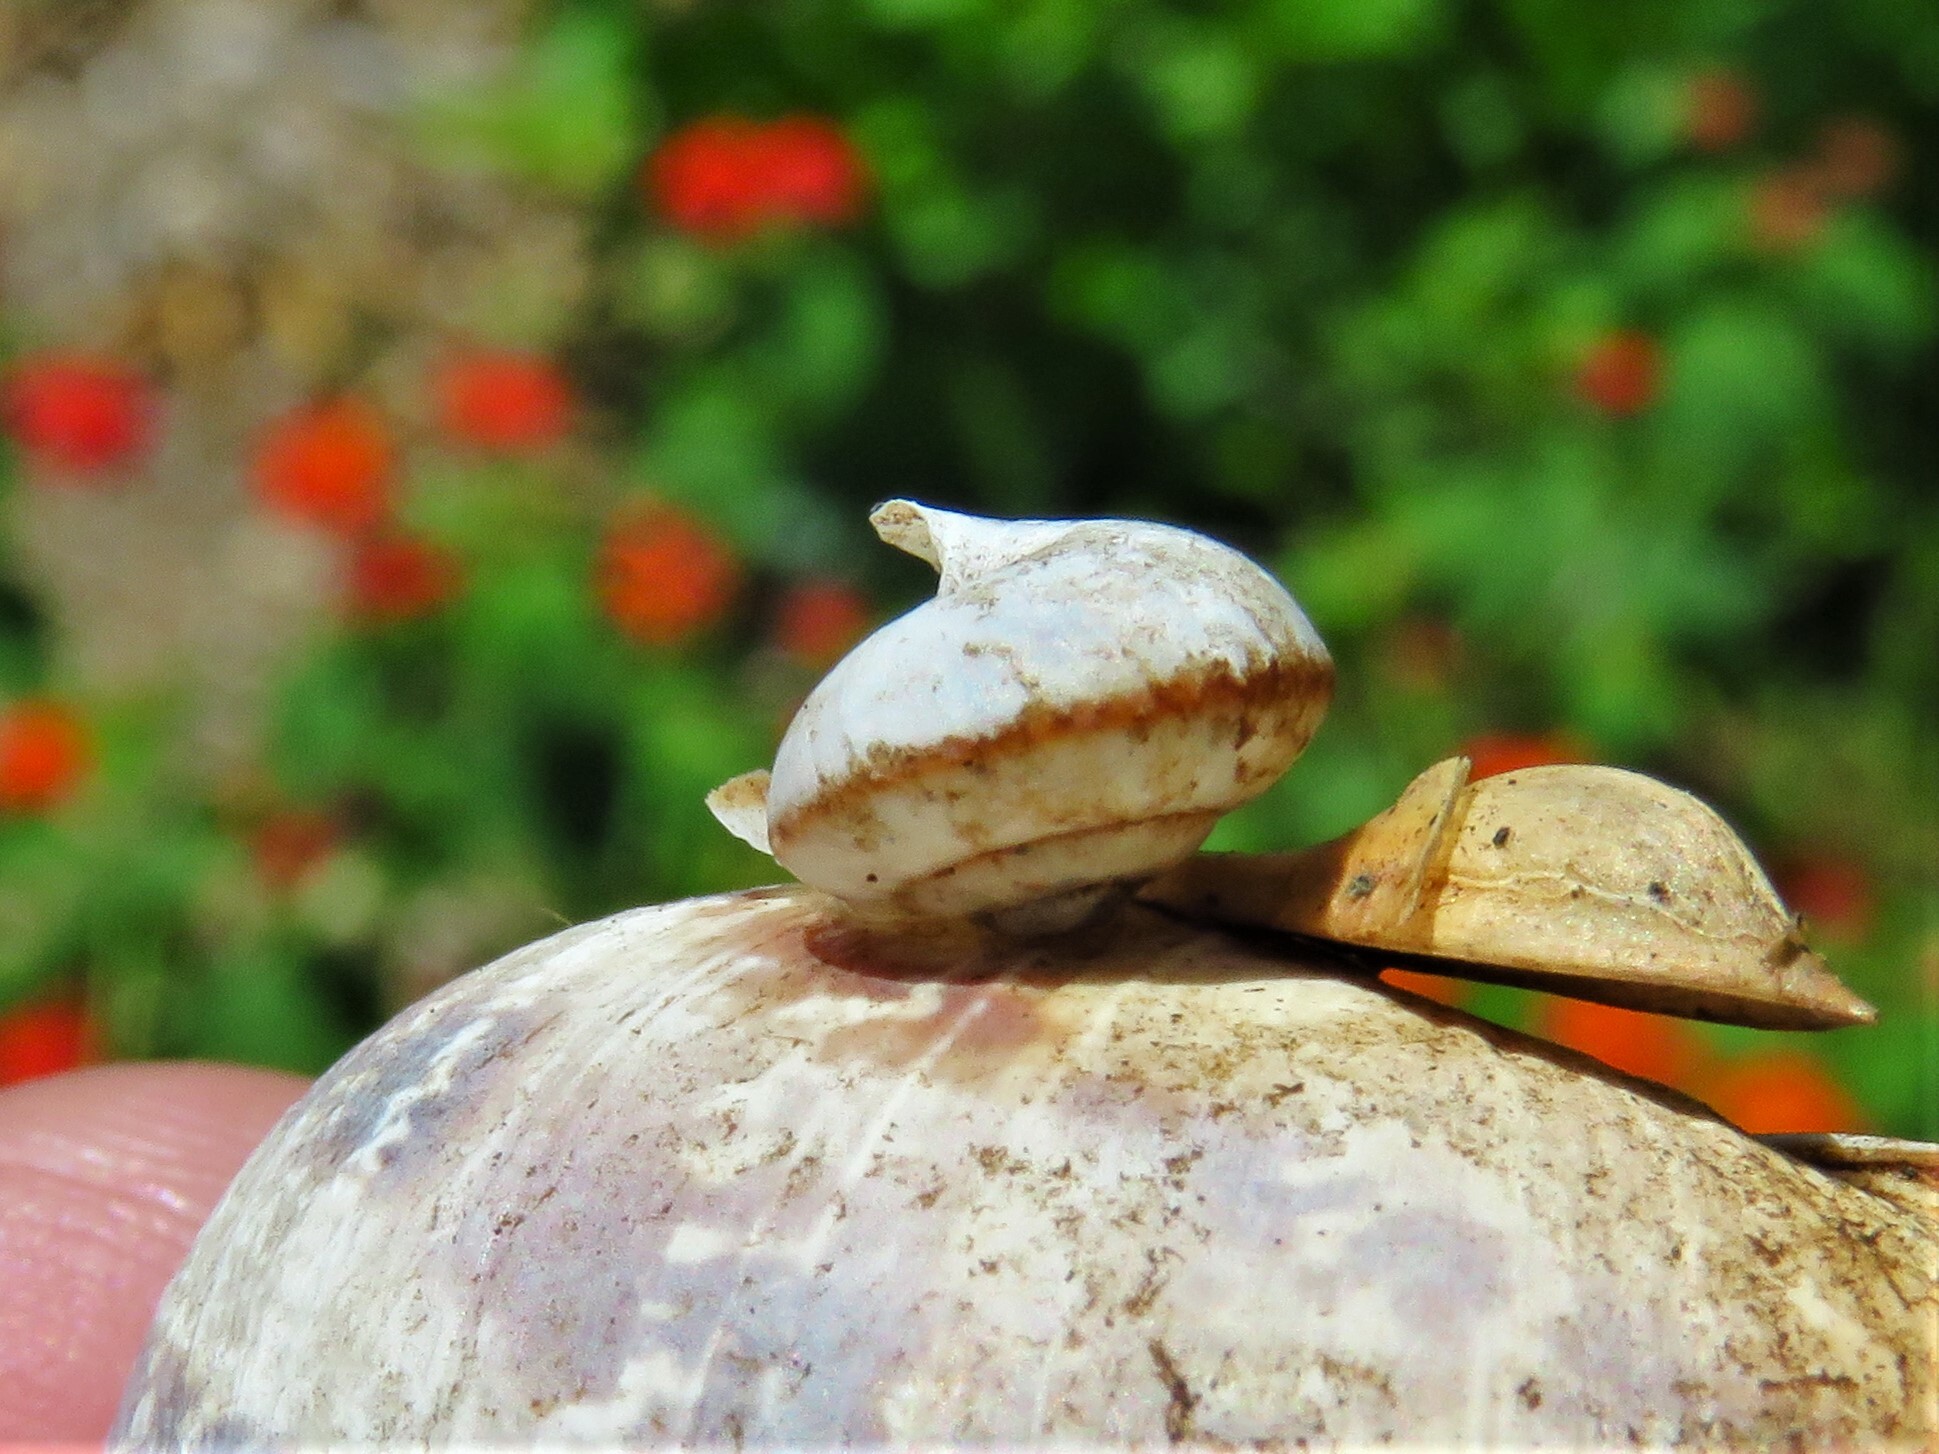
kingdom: Animalia
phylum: Mollusca
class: Gastropoda
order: Stylommatophora
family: Camaenidae
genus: Bradybaena
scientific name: Bradybaena similaris
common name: Asian trampsnail
